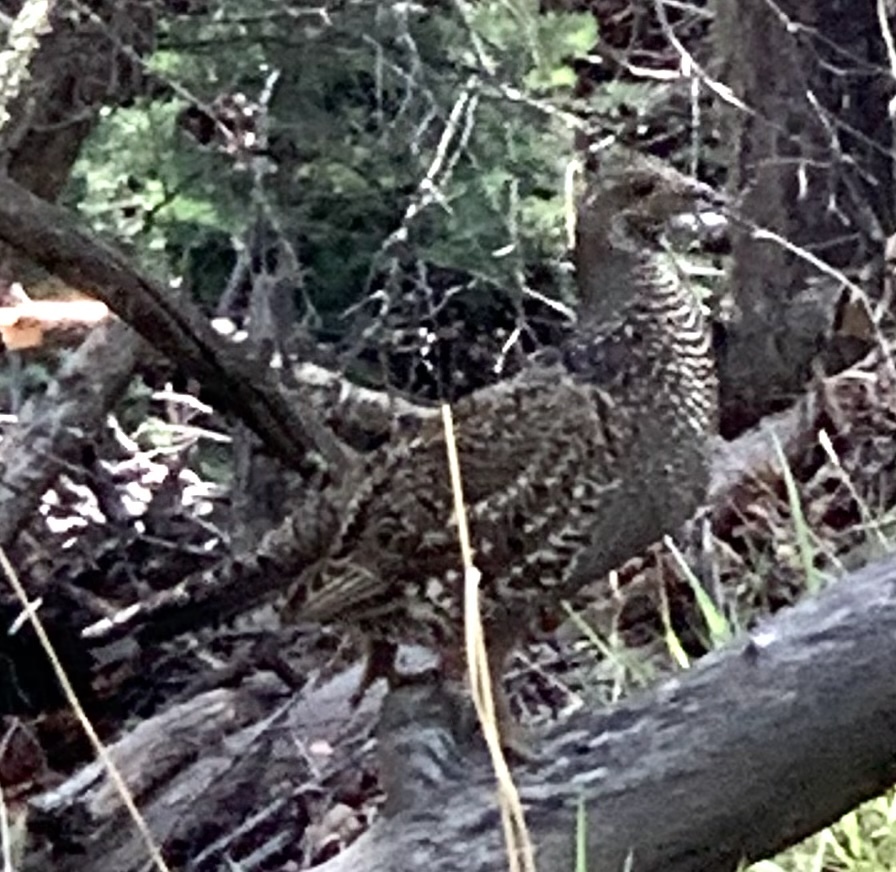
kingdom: Animalia
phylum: Chordata
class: Aves
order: Galliformes
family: Phasianidae
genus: Dendragapus
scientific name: Dendragapus obscurus
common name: Dusky grouse
